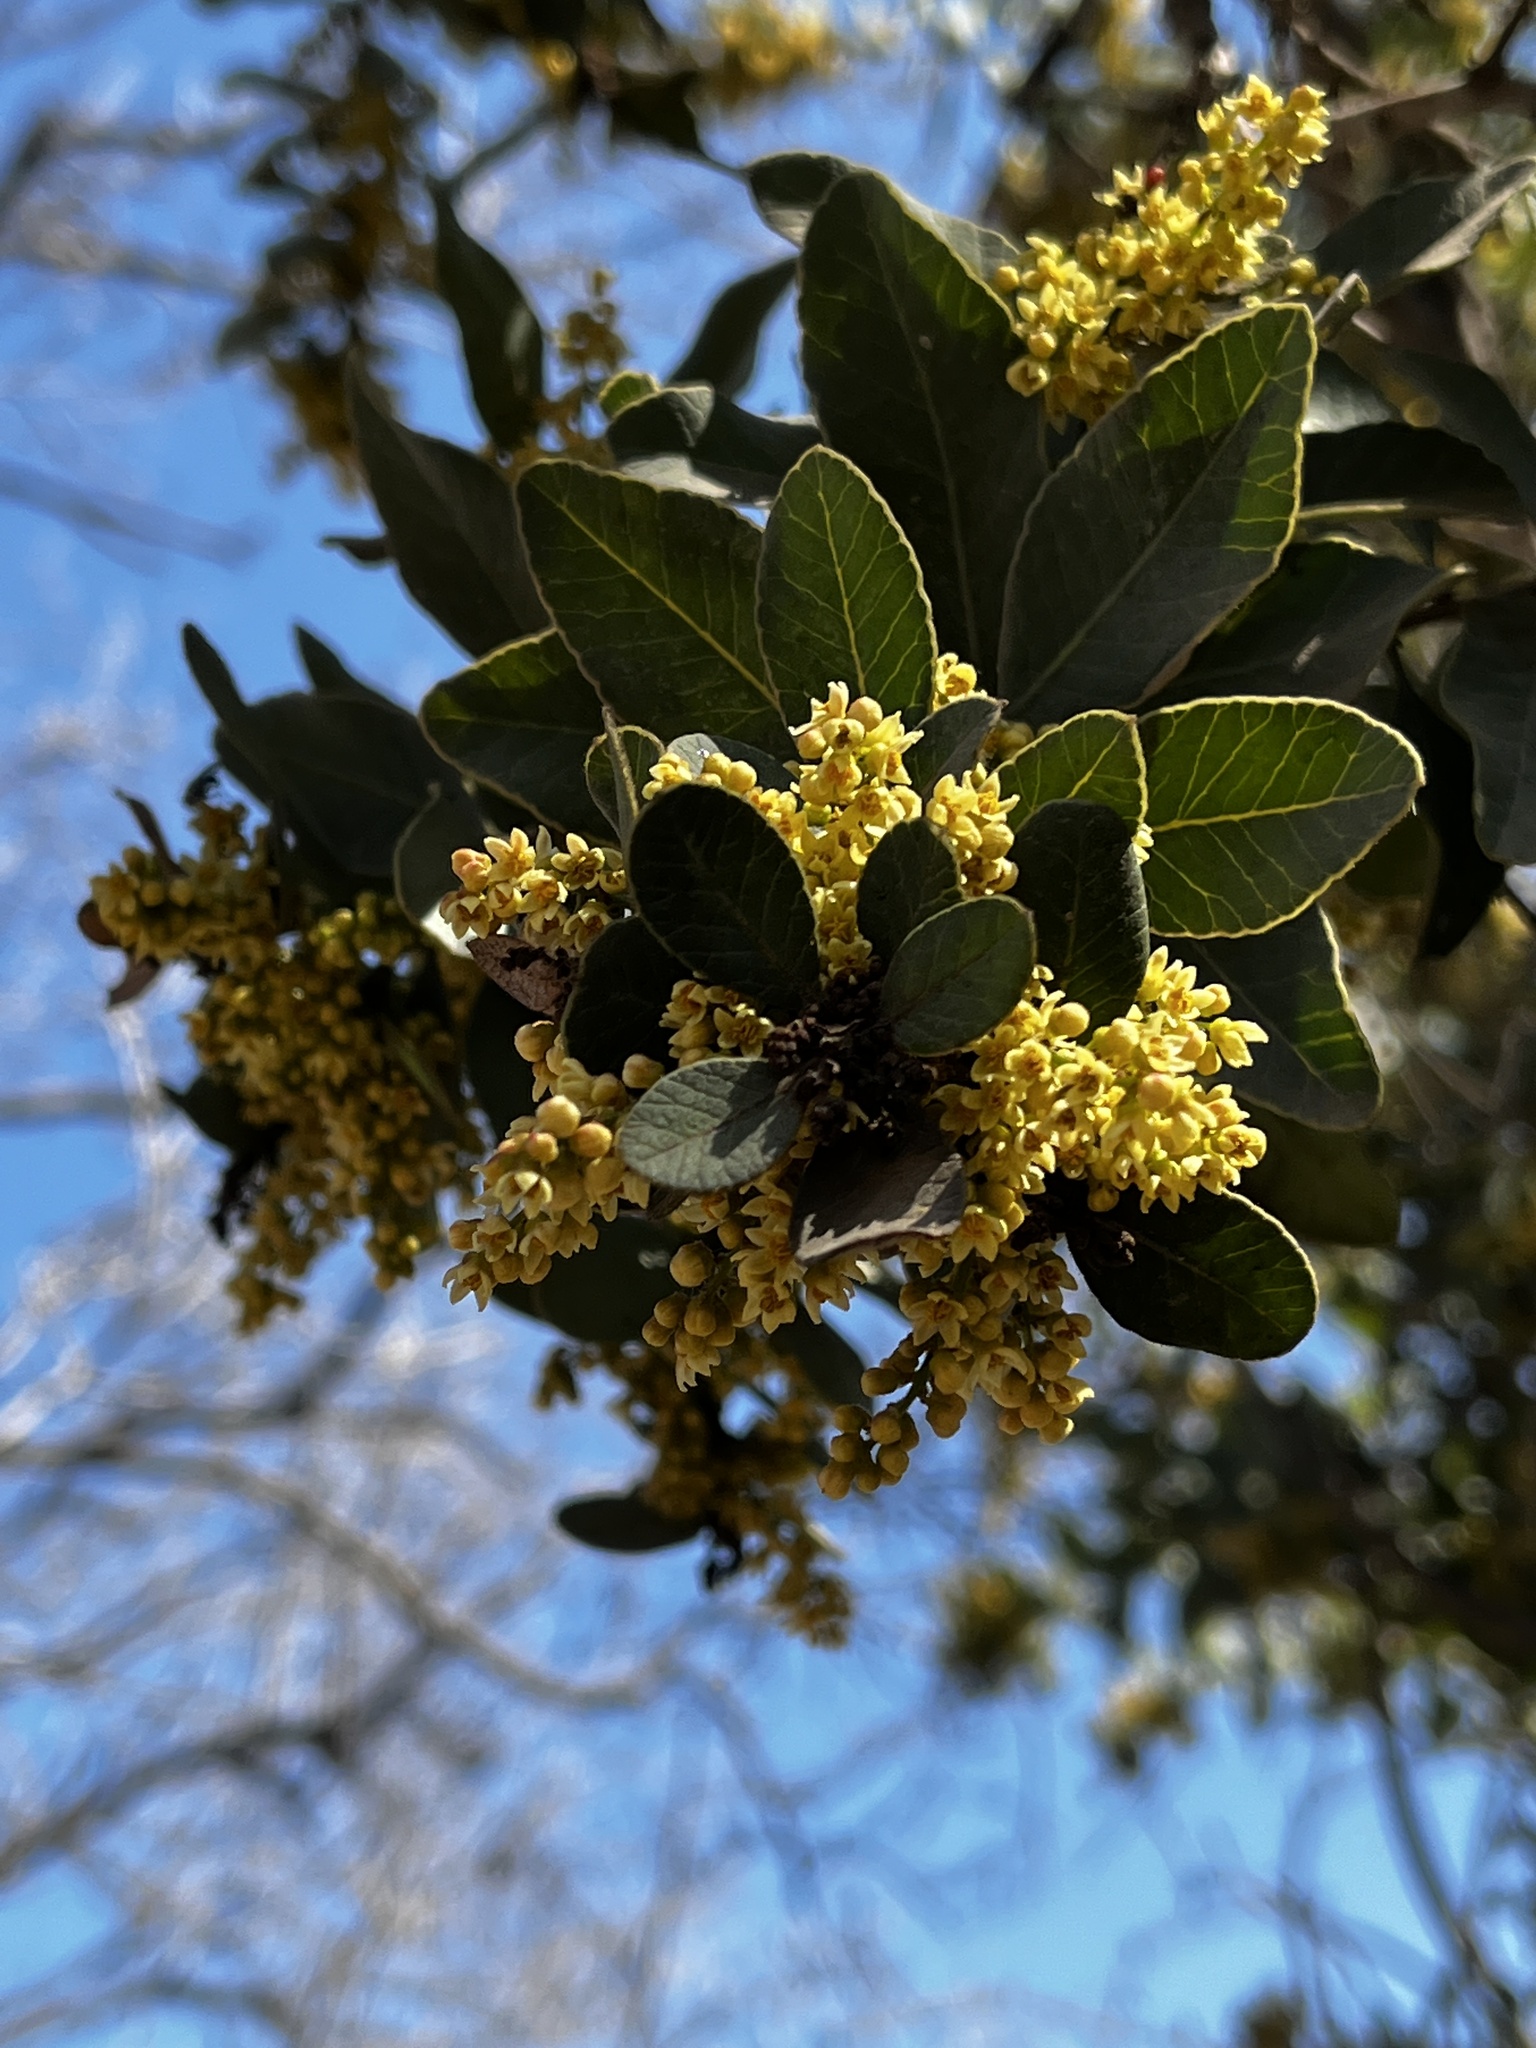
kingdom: Plantae
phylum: Tracheophyta
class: Magnoliopsida
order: Sapindales
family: Anacardiaceae
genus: Lithraea
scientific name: Lithraea caustica
